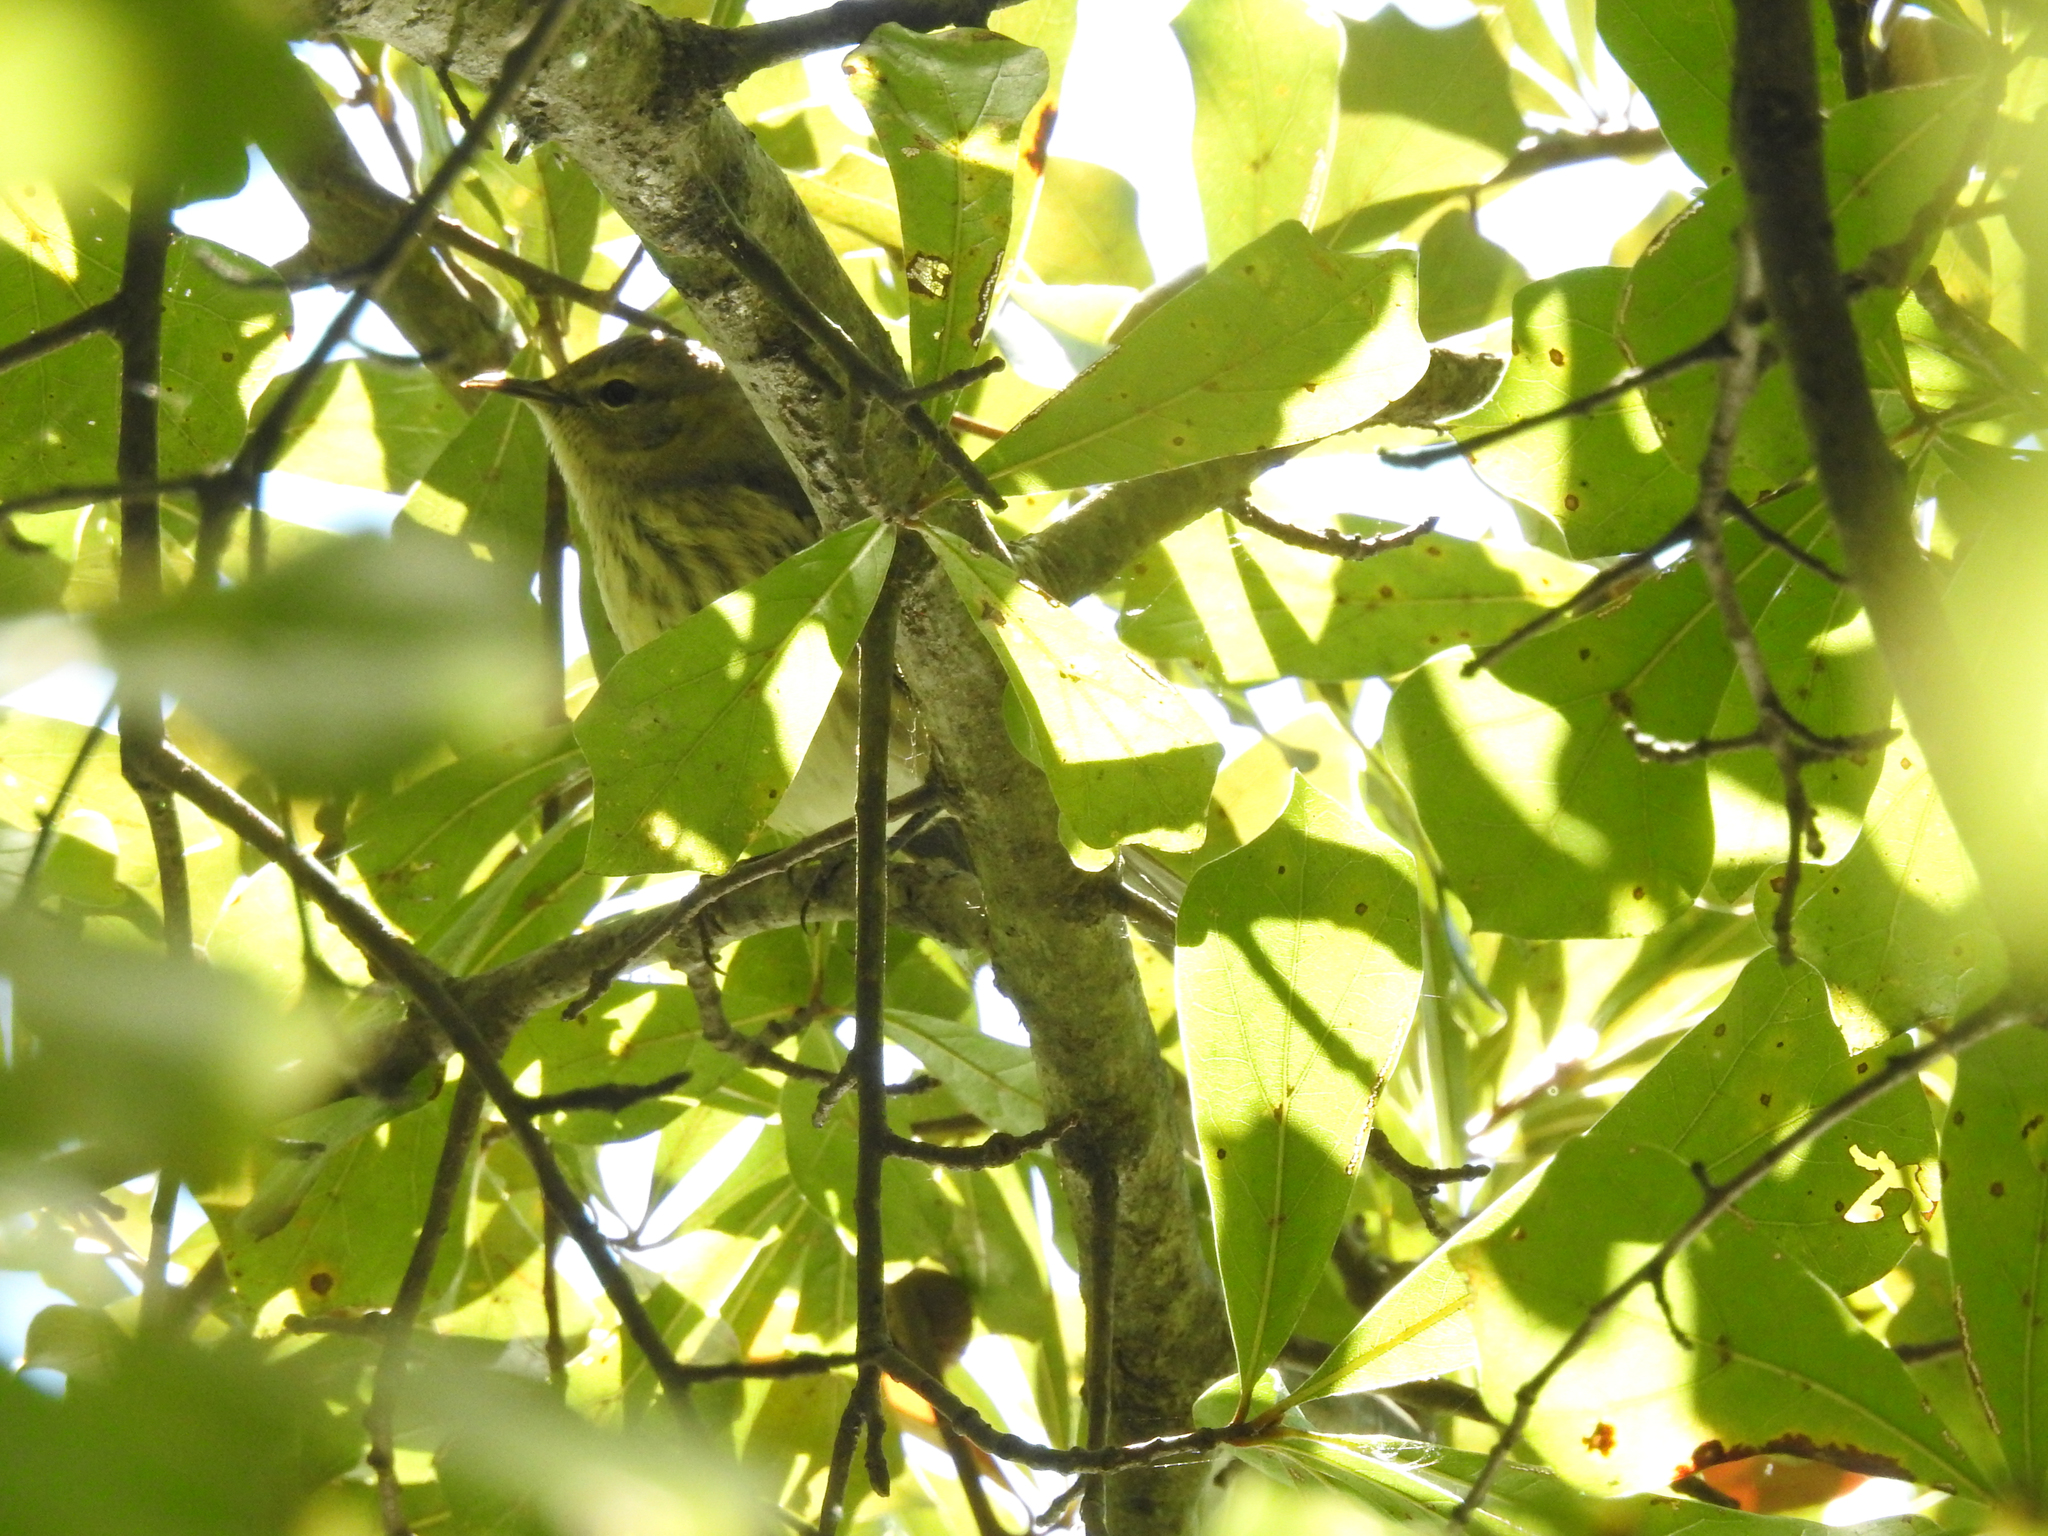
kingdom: Animalia
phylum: Chordata
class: Aves
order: Passeriformes
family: Parulidae
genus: Setophaga
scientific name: Setophaga tigrina
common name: Cape may warbler
